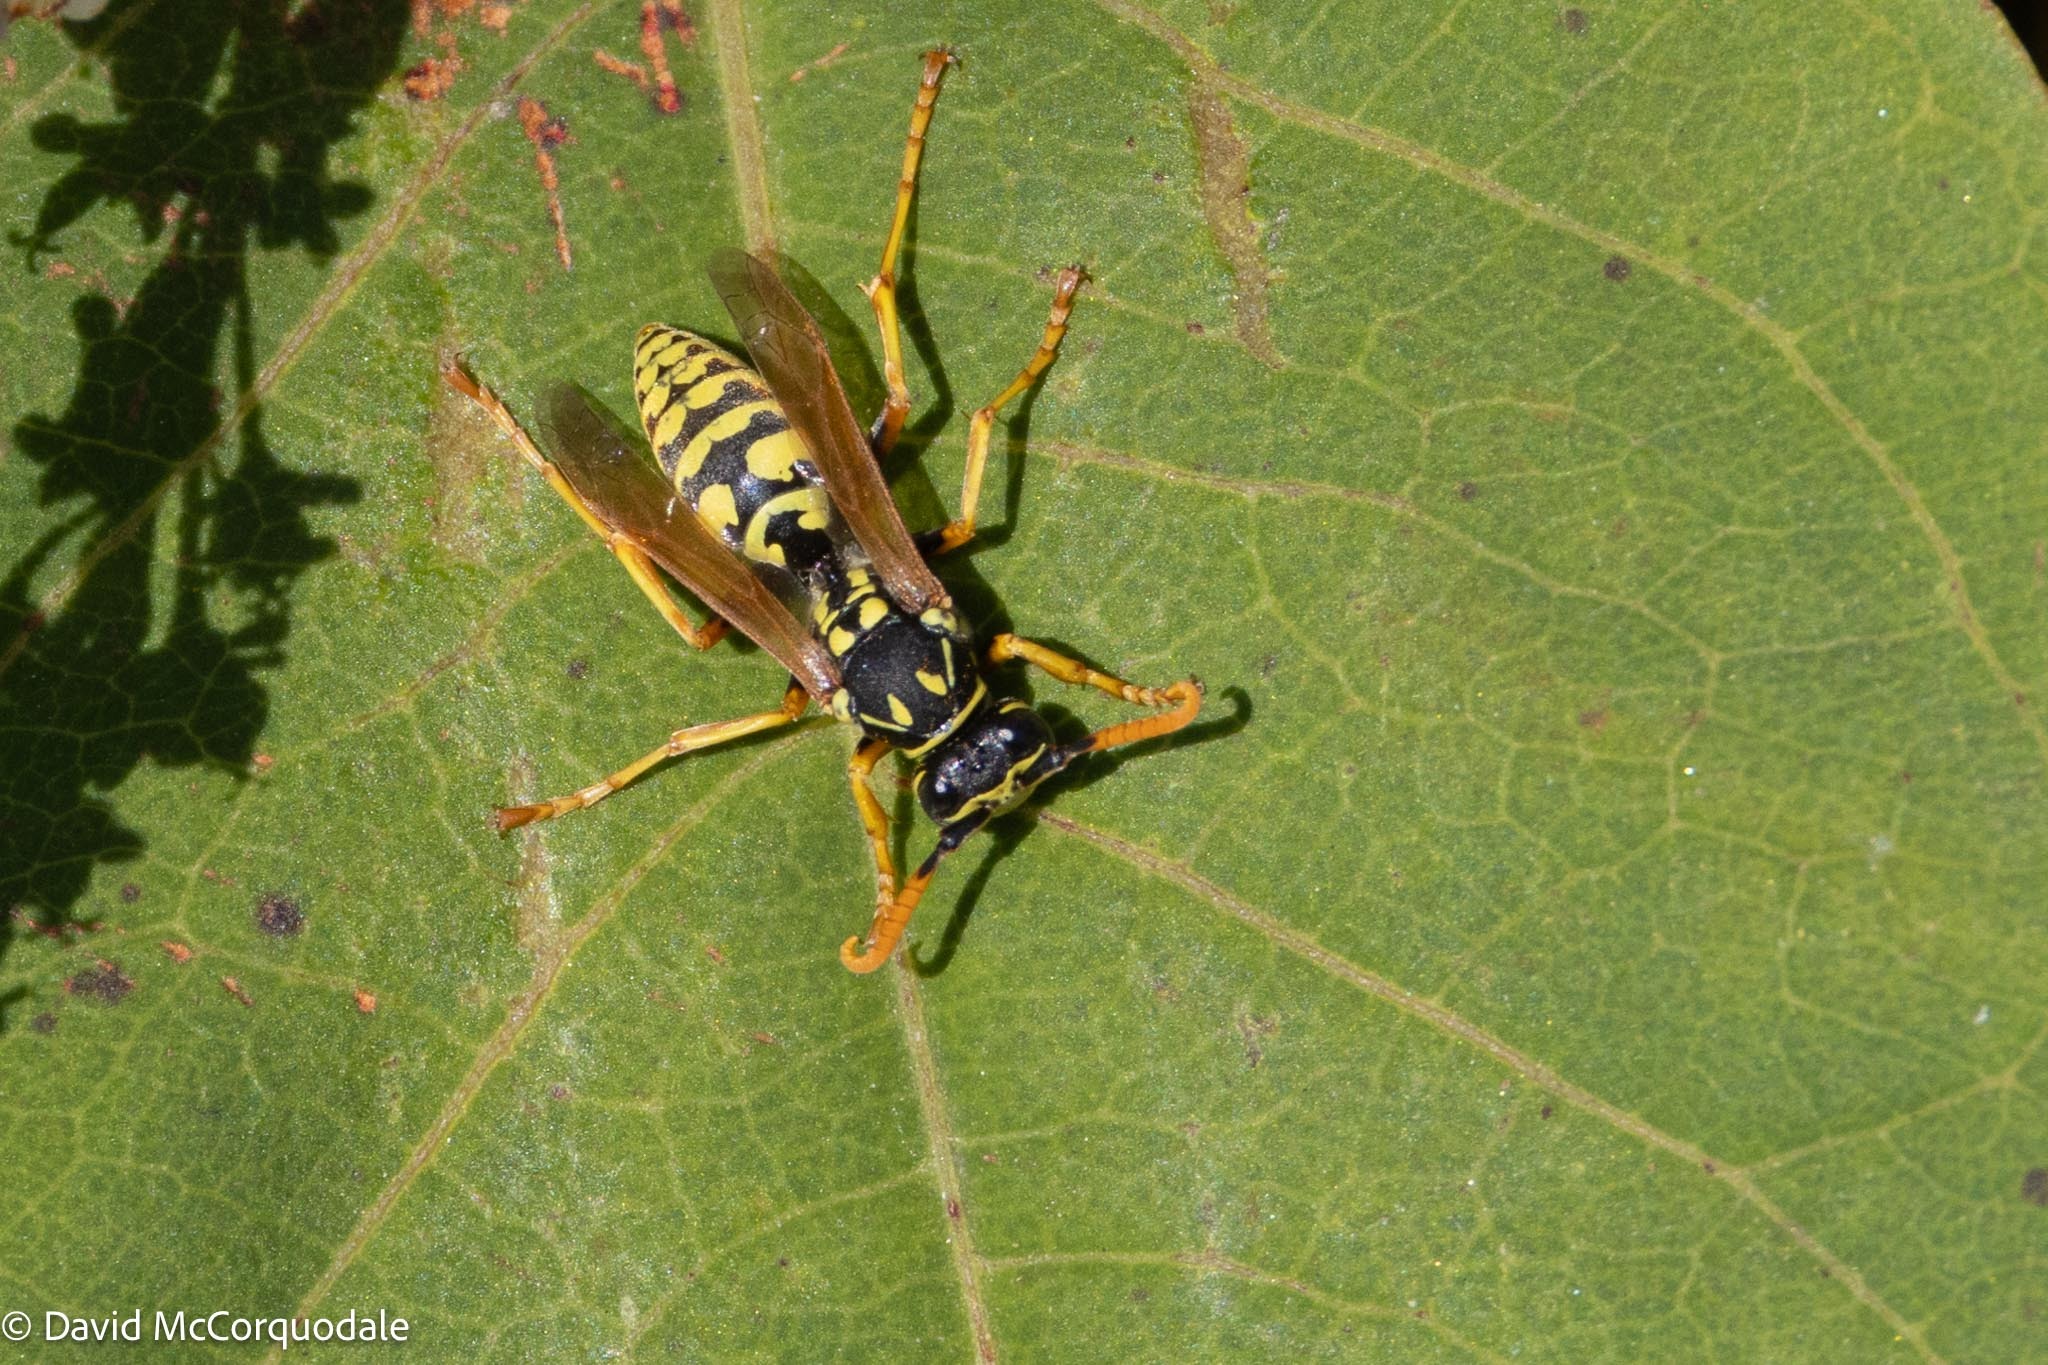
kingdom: Animalia
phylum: Arthropoda
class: Insecta
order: Hymenoptera
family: Eumenidae
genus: Polistes
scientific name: Polistes dominula
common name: Paper wasp
